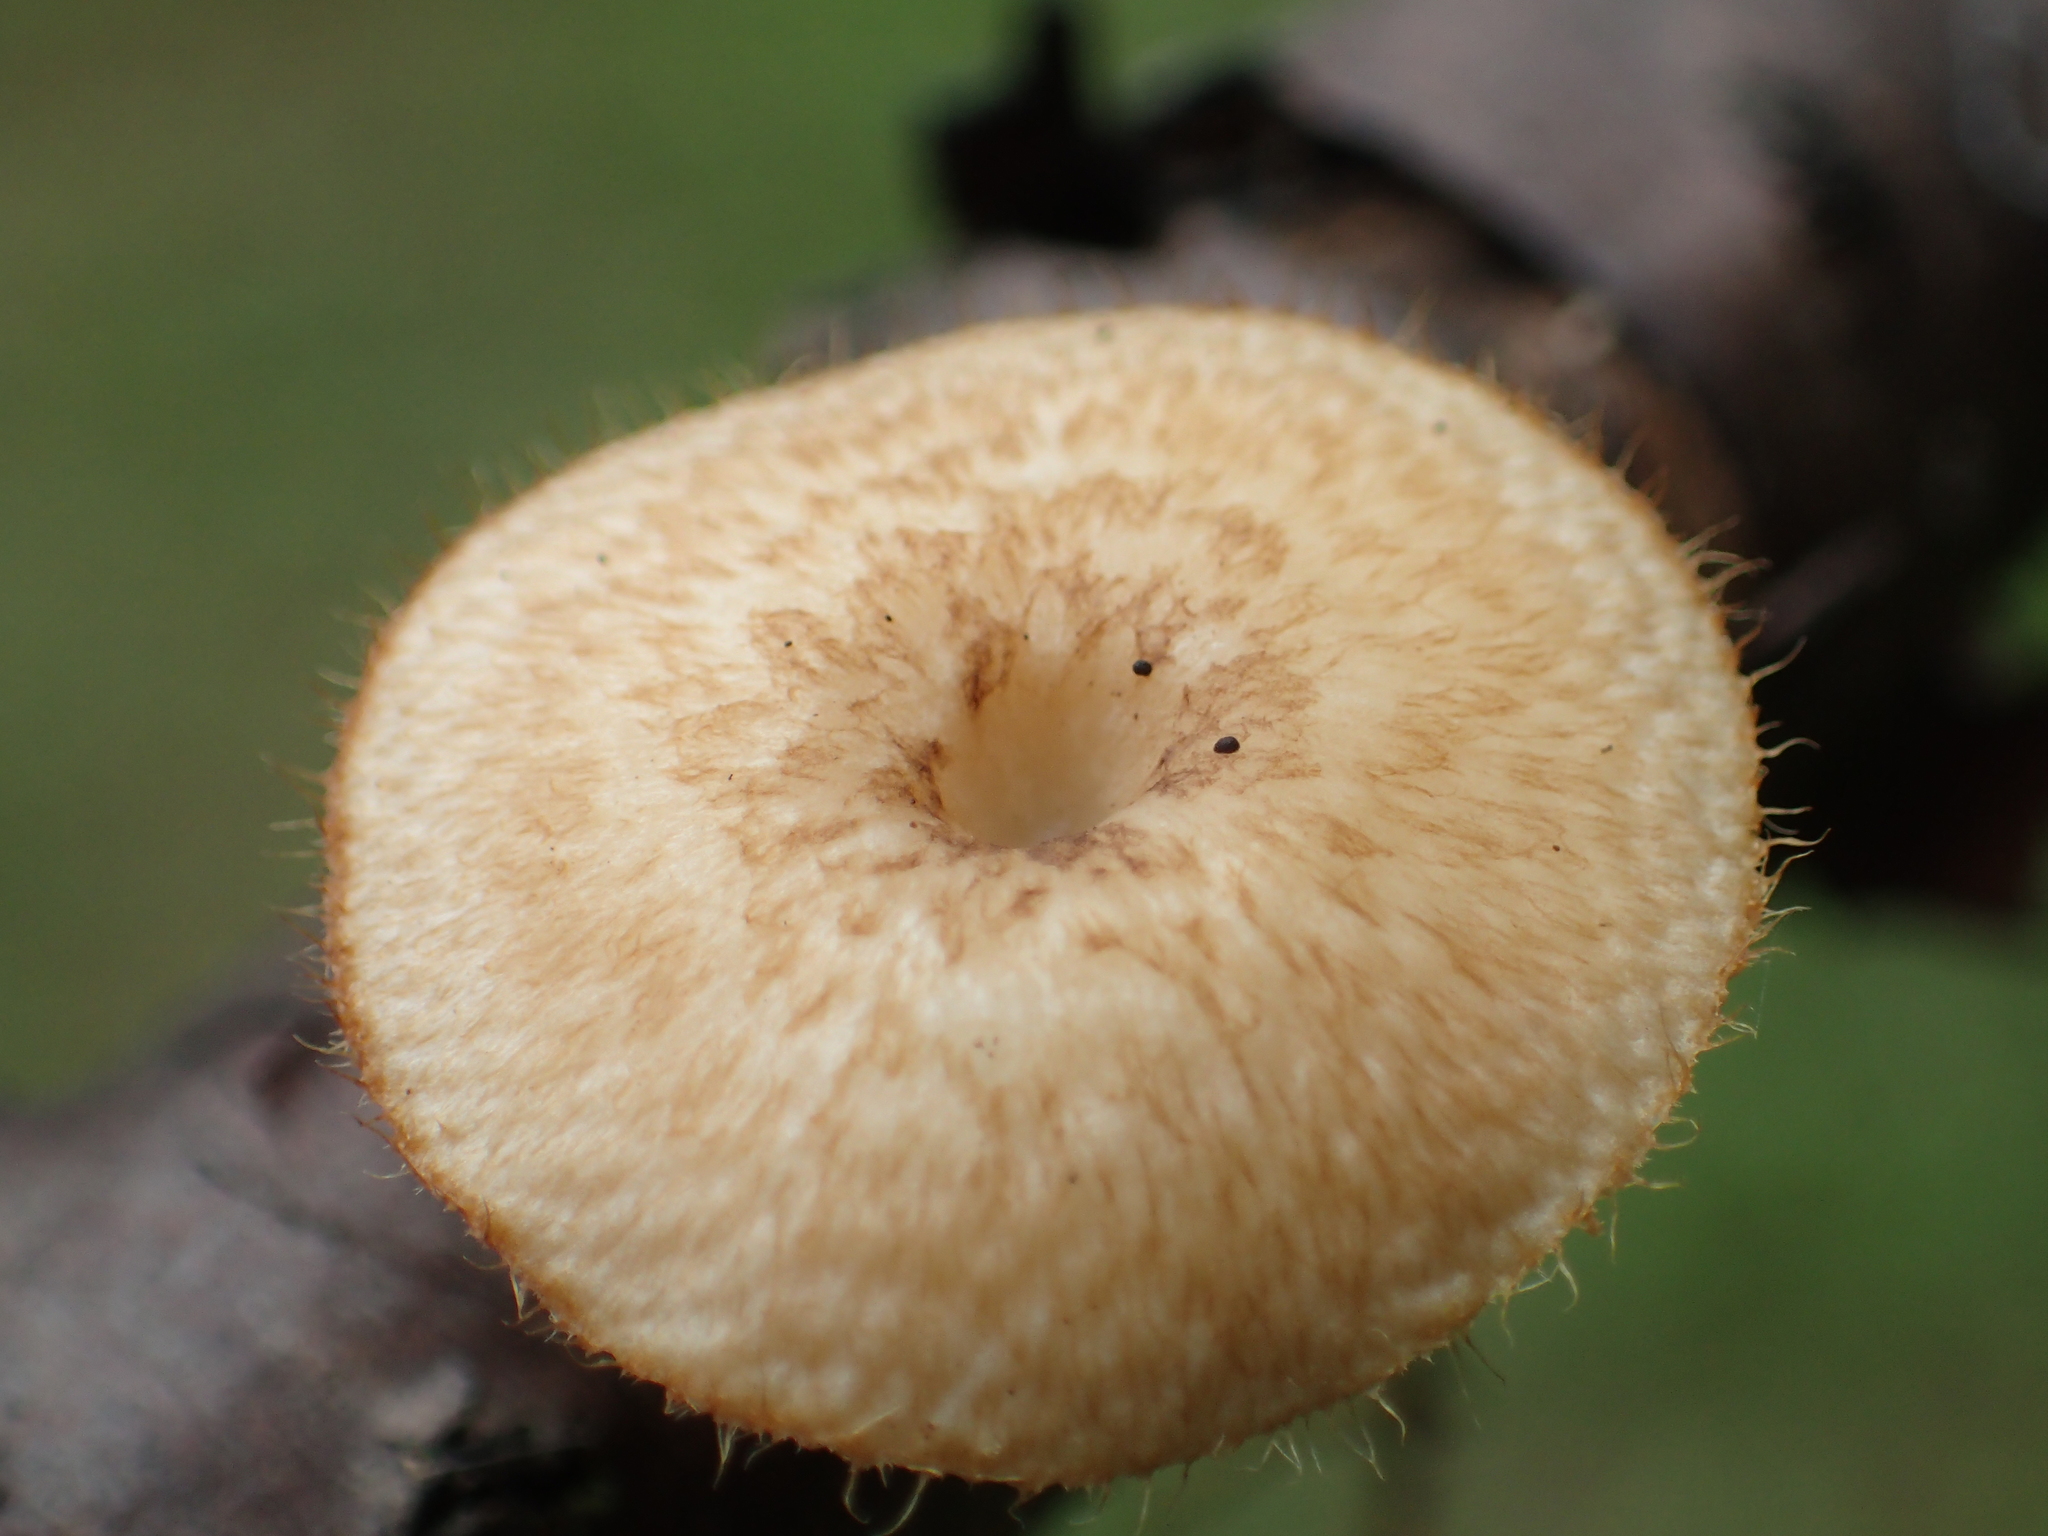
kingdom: Fungi
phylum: Basidiomycota
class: Agaricomycetes
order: Polyporales
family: Polyporaceae
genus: Lentinus
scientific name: Lentinus arcularius
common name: Spring polypore
